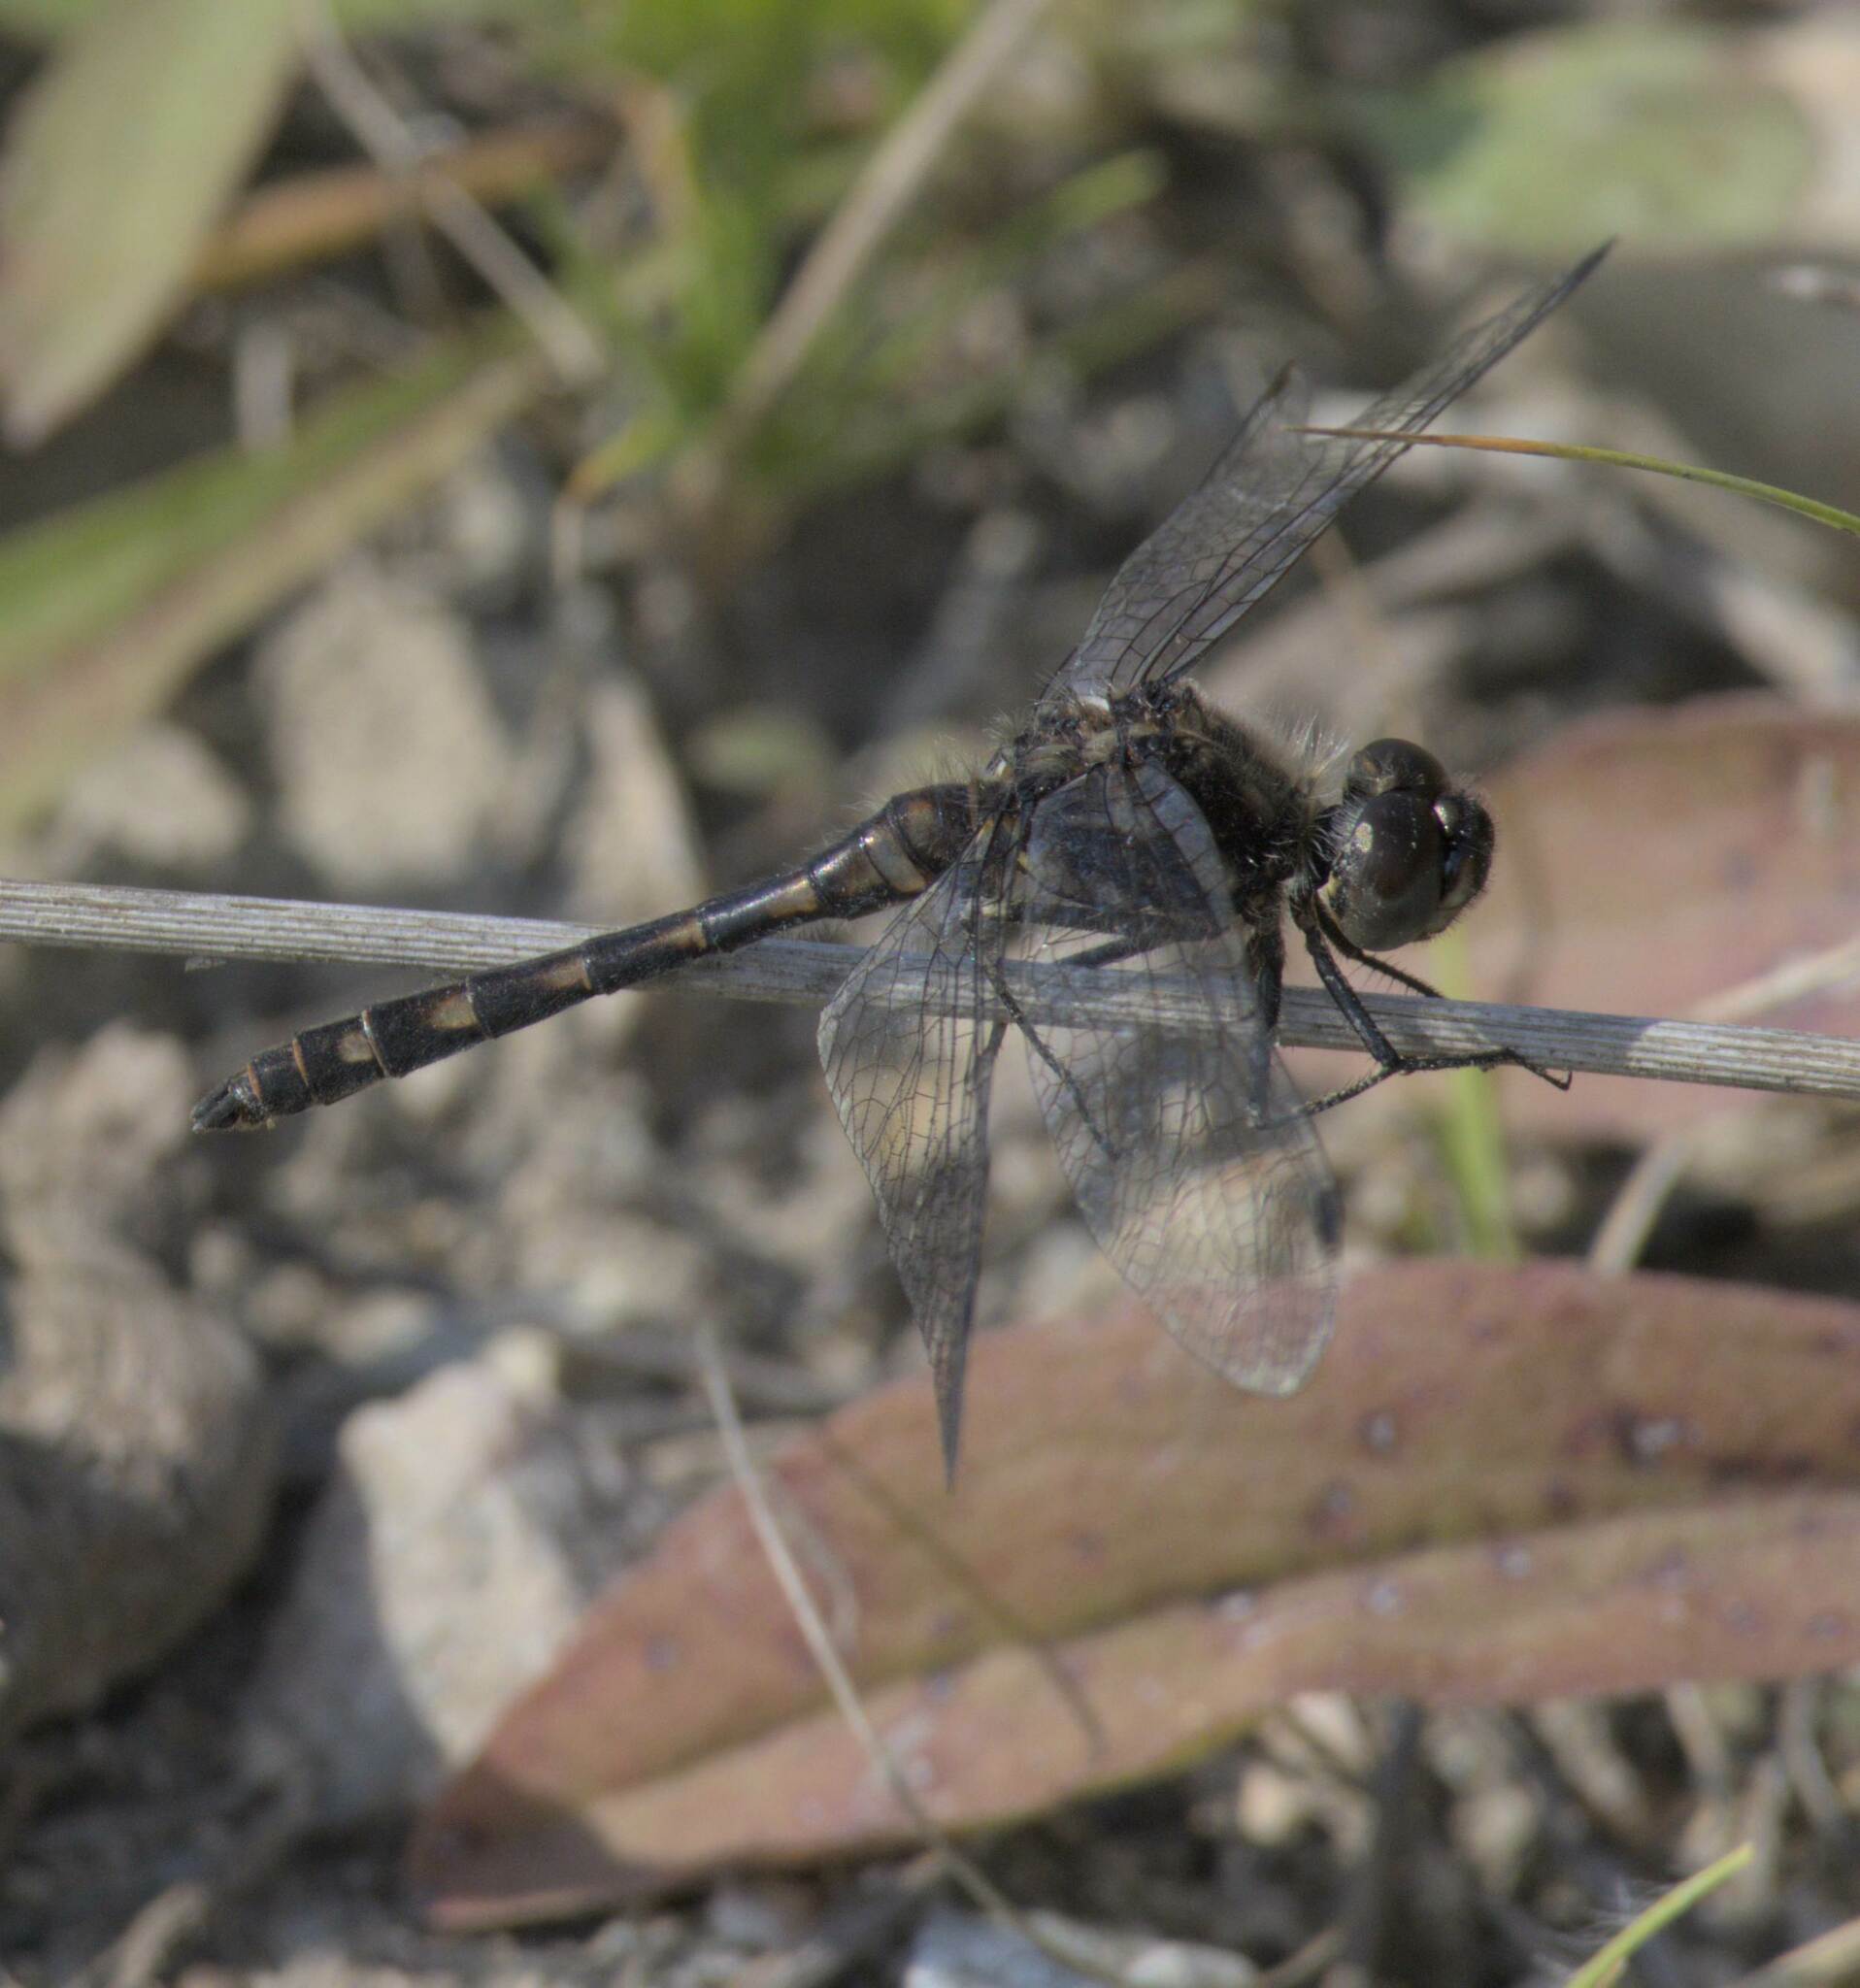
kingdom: Animalia
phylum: Arthropoda
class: Insecta
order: Odonata
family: Libellulidae
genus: Sympetrum
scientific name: Sympetrum danae
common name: Black darter
